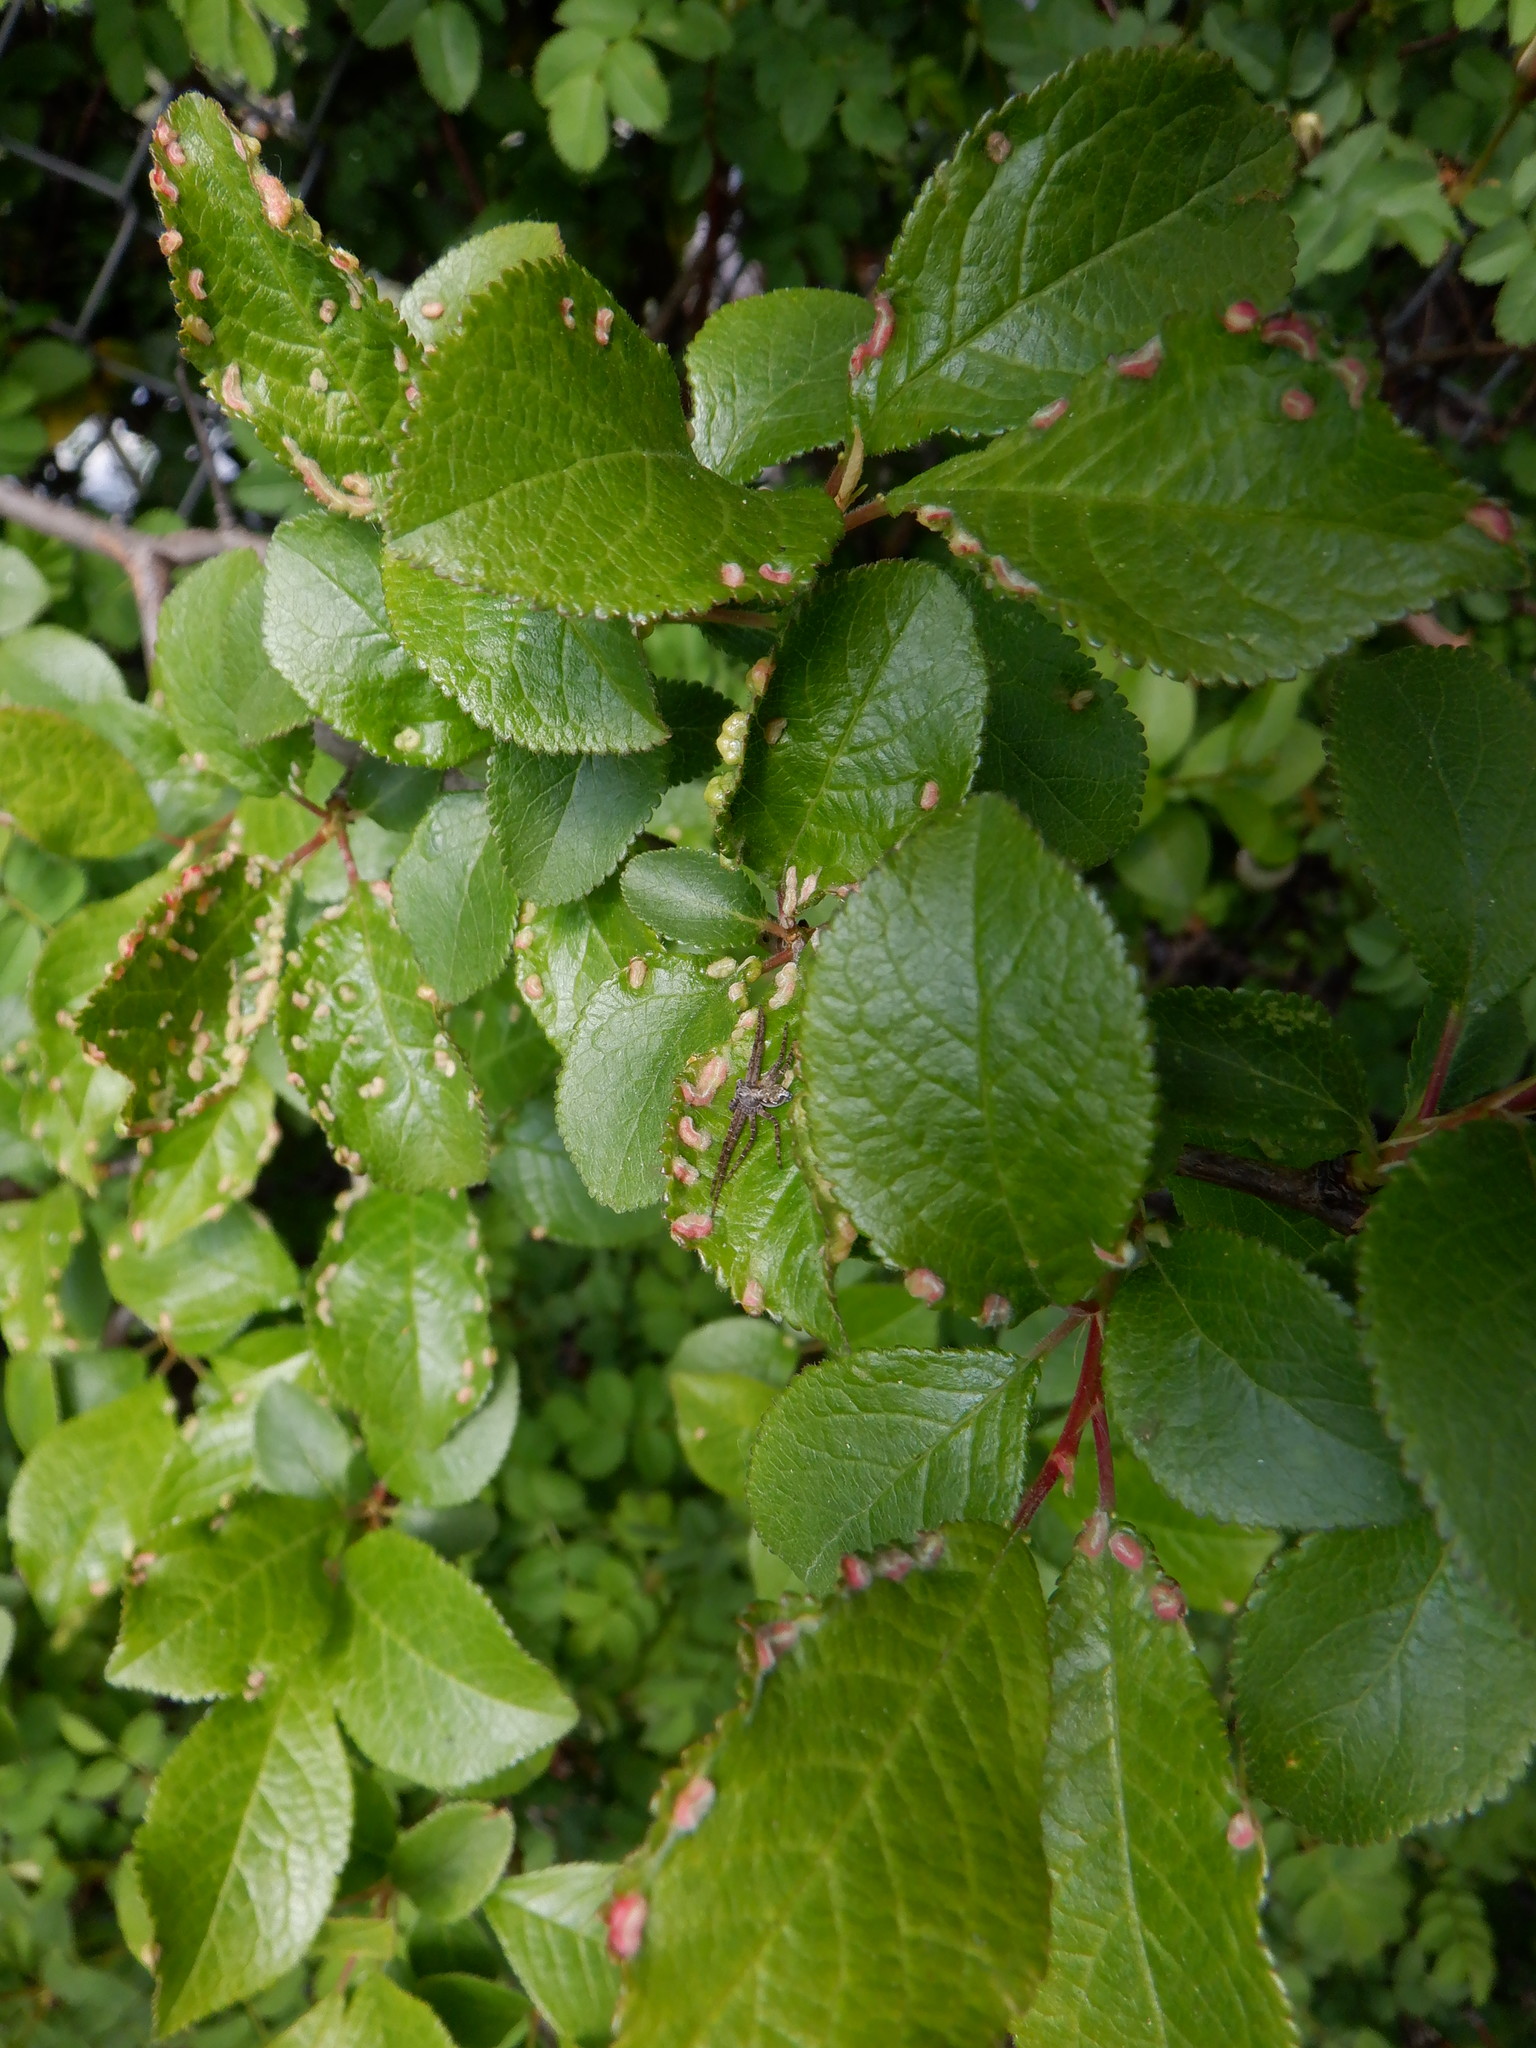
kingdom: Animalia
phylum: Arthropoda
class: Arachnida
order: Trombidiformes
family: Eriophyidae
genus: Eriophyes
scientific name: Eriophyes similis
